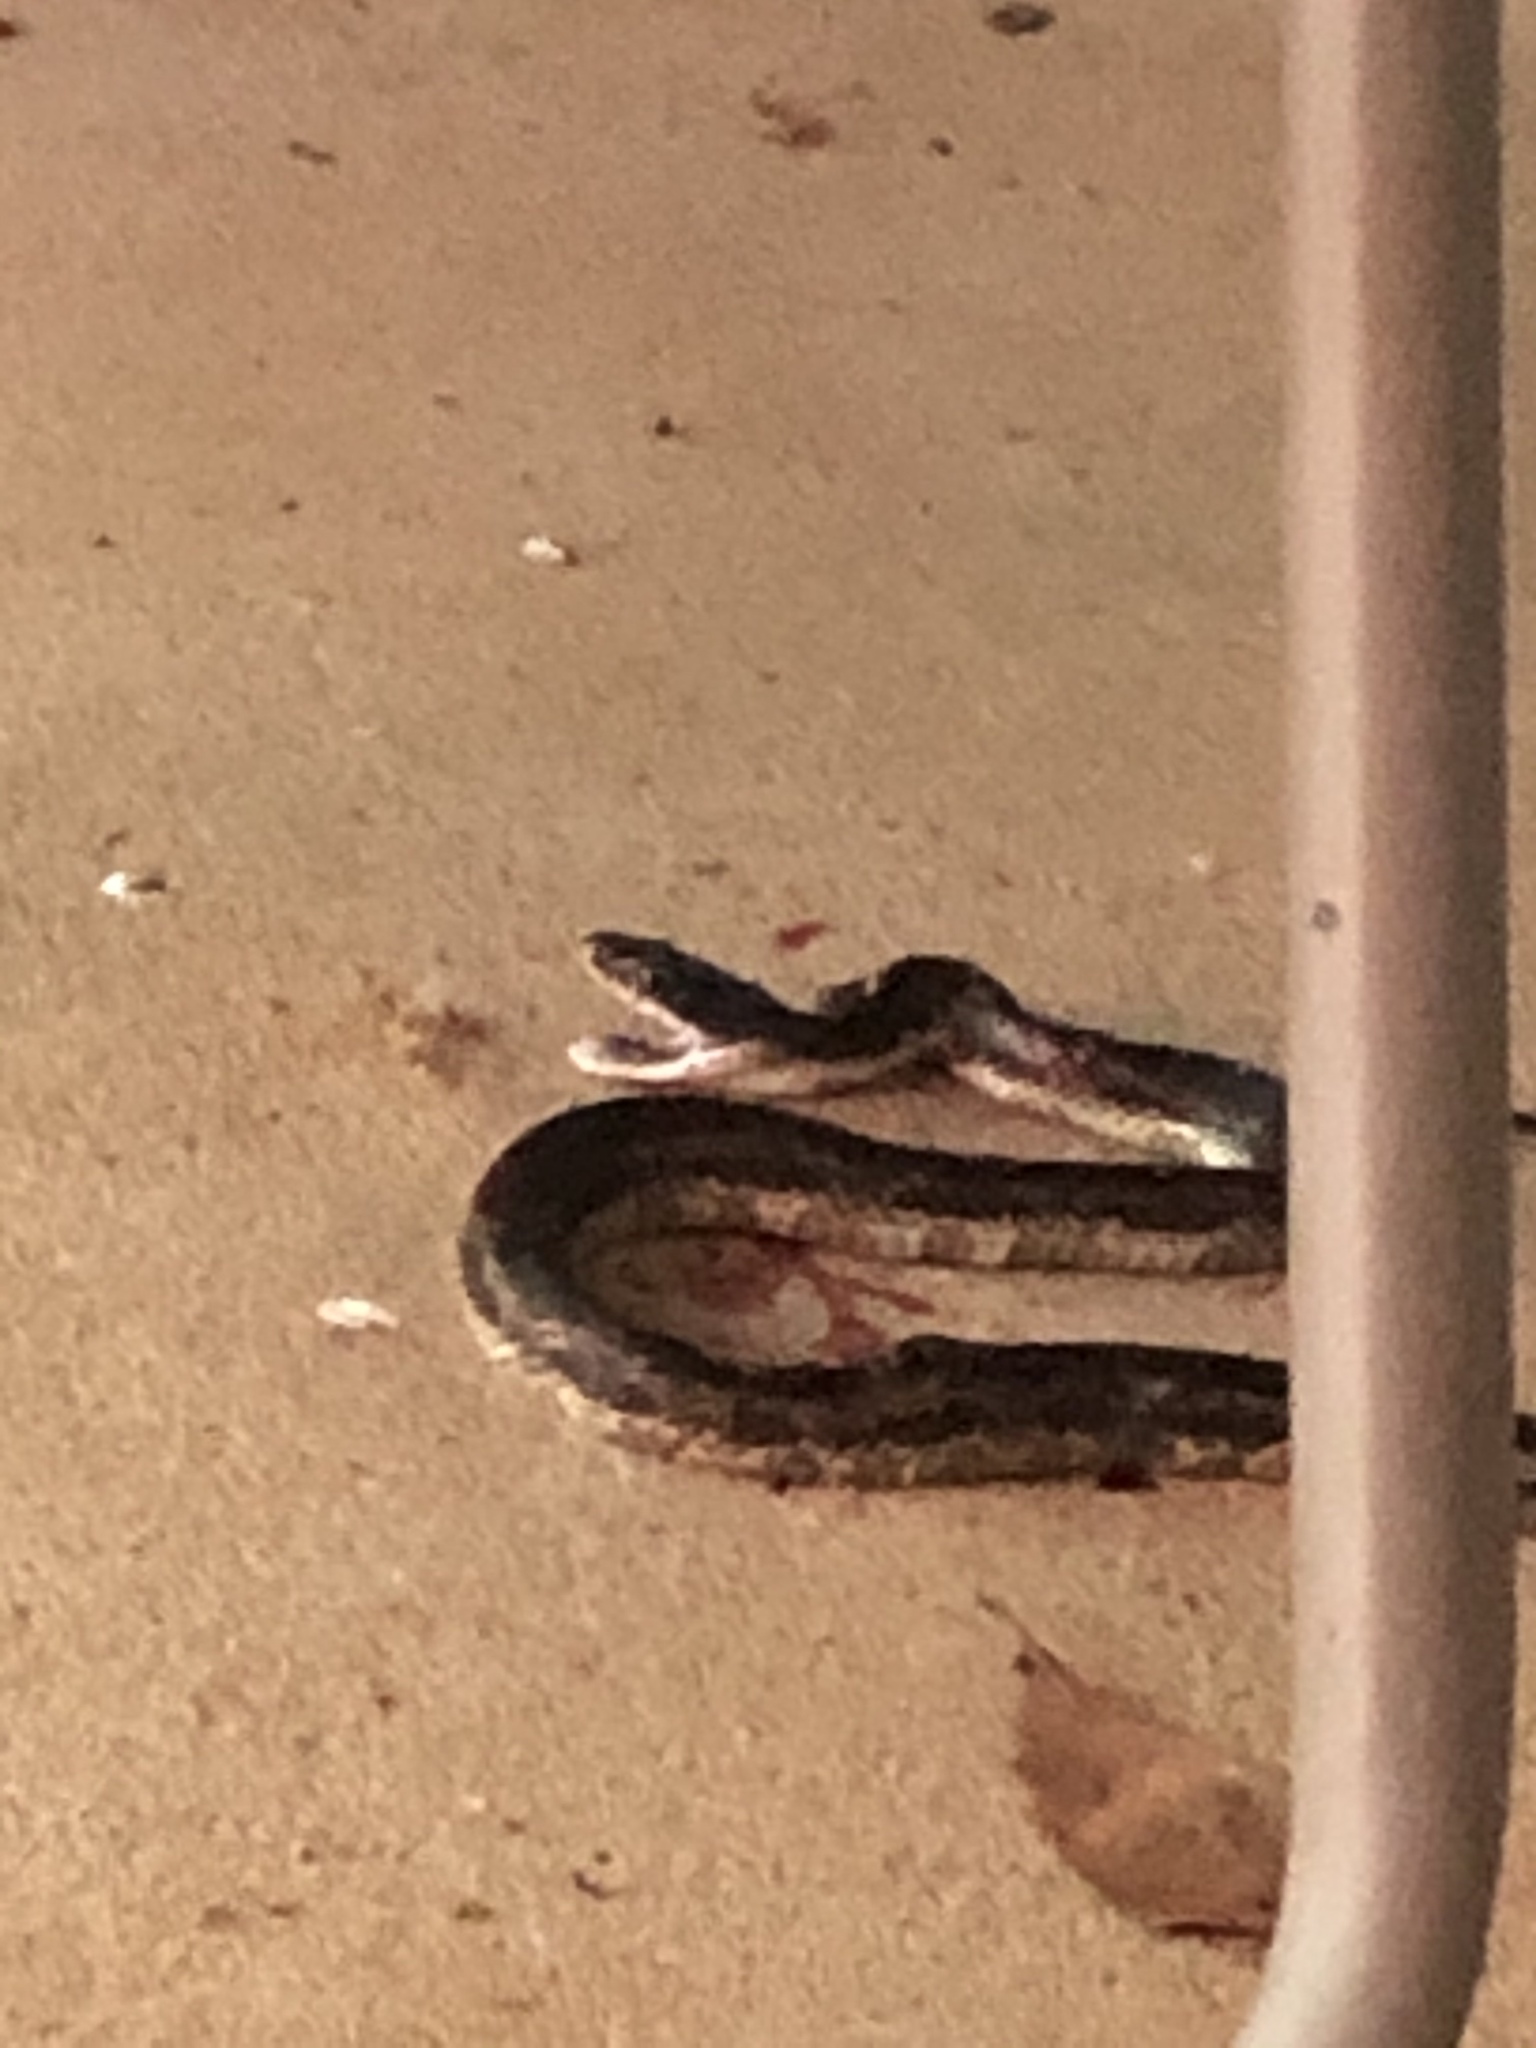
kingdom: Animalia
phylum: Chordata
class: Squamata
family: Colubridae
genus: Pantherophis
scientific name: Pantherophis obsoletus
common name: Black rat snake
